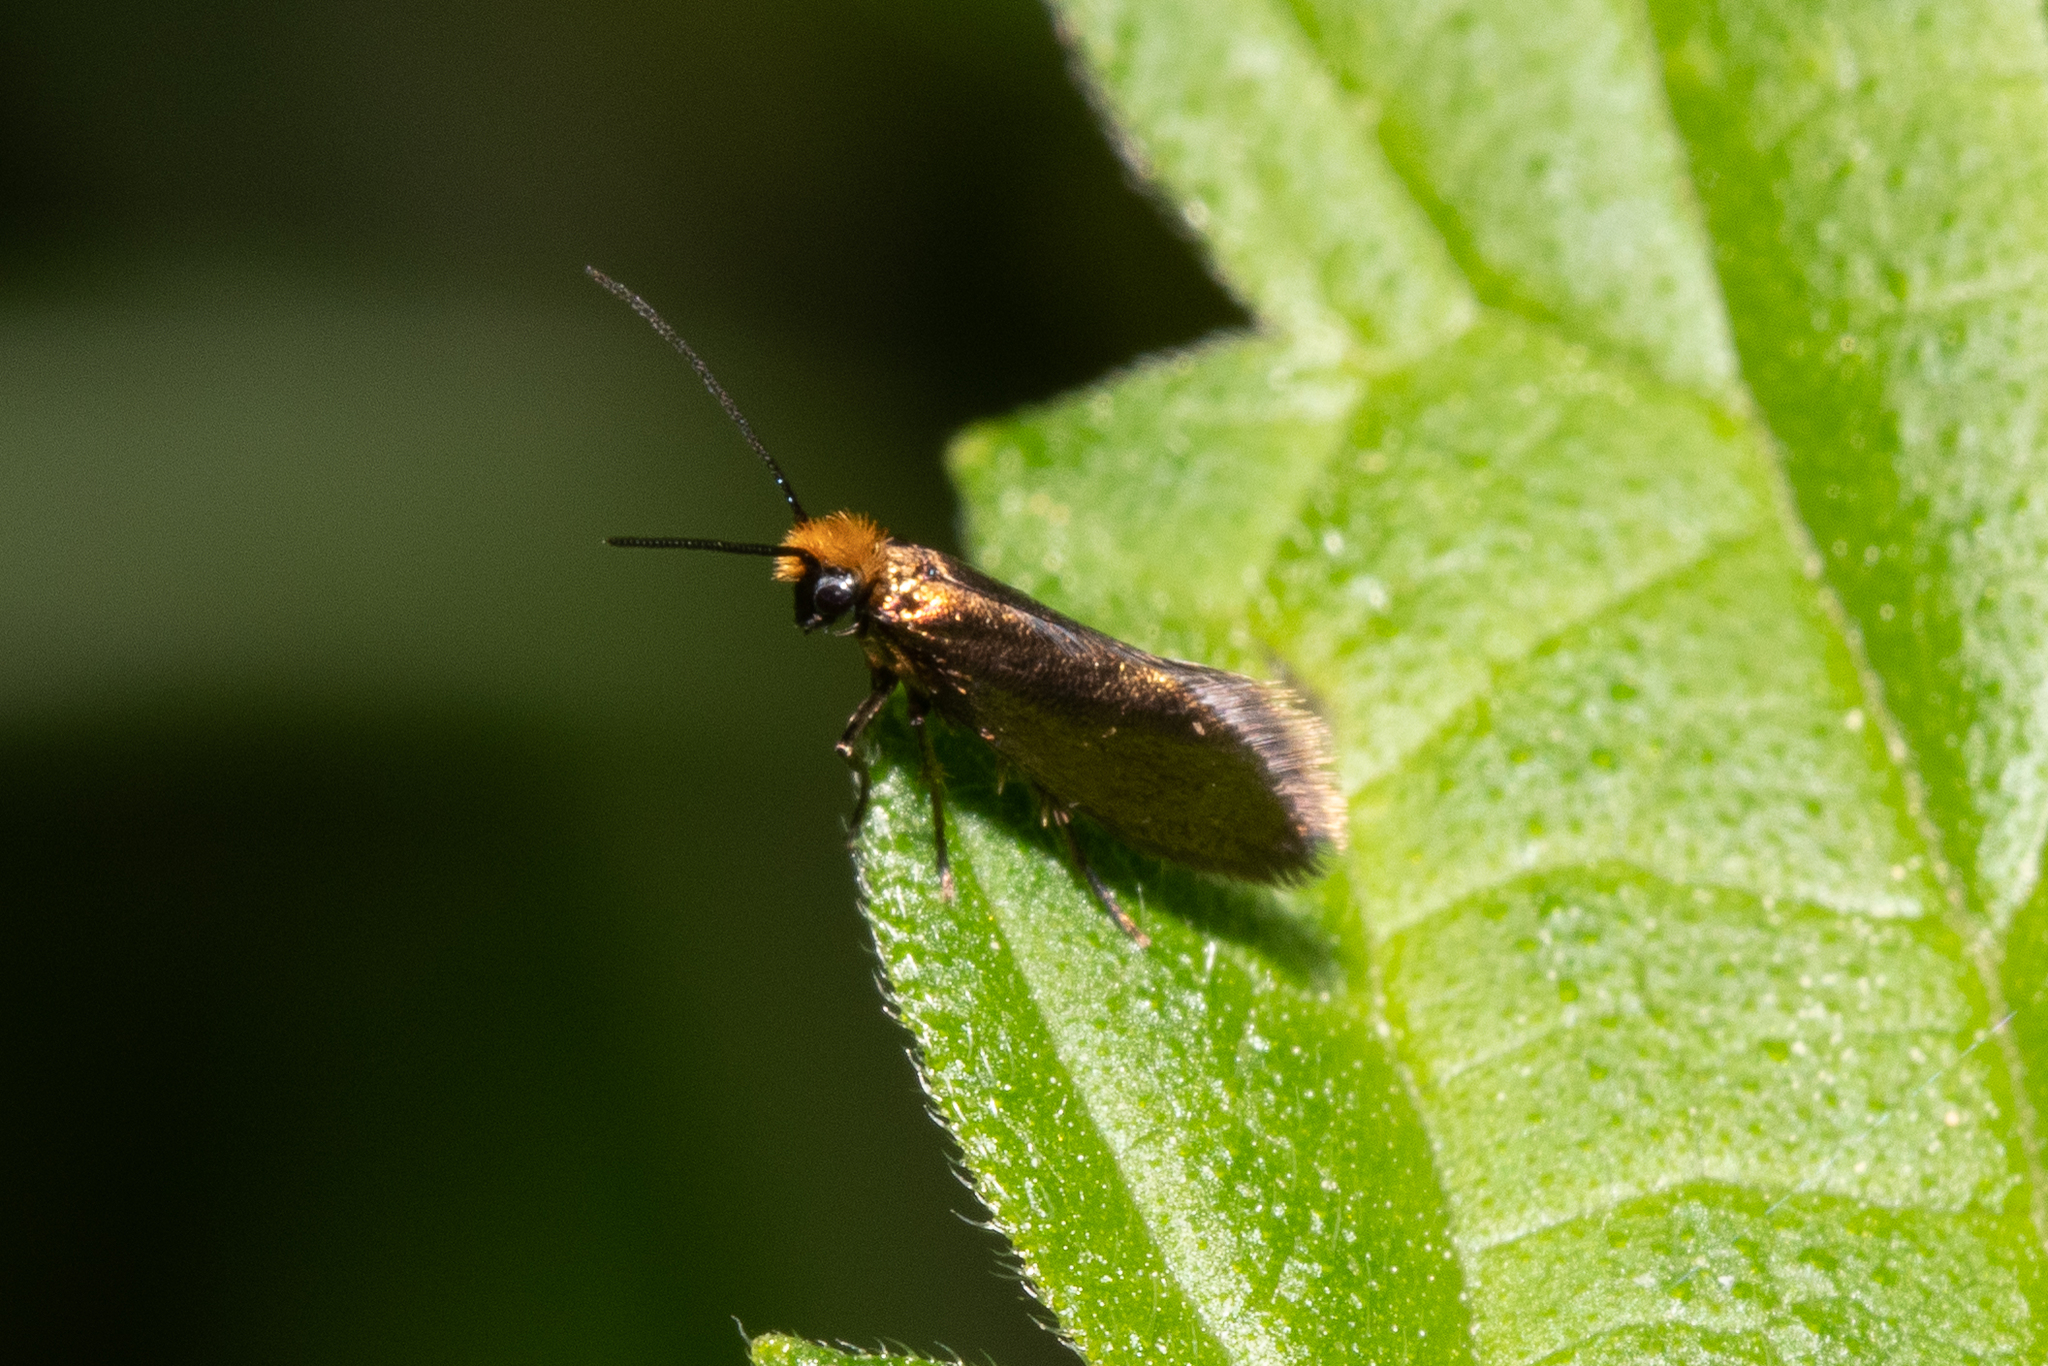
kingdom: Animalia
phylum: Arthropoda
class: Insecta
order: Lepidoptera
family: Micropterigidae
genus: Micropterix
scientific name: Micropterix calthella
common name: Plain gold
